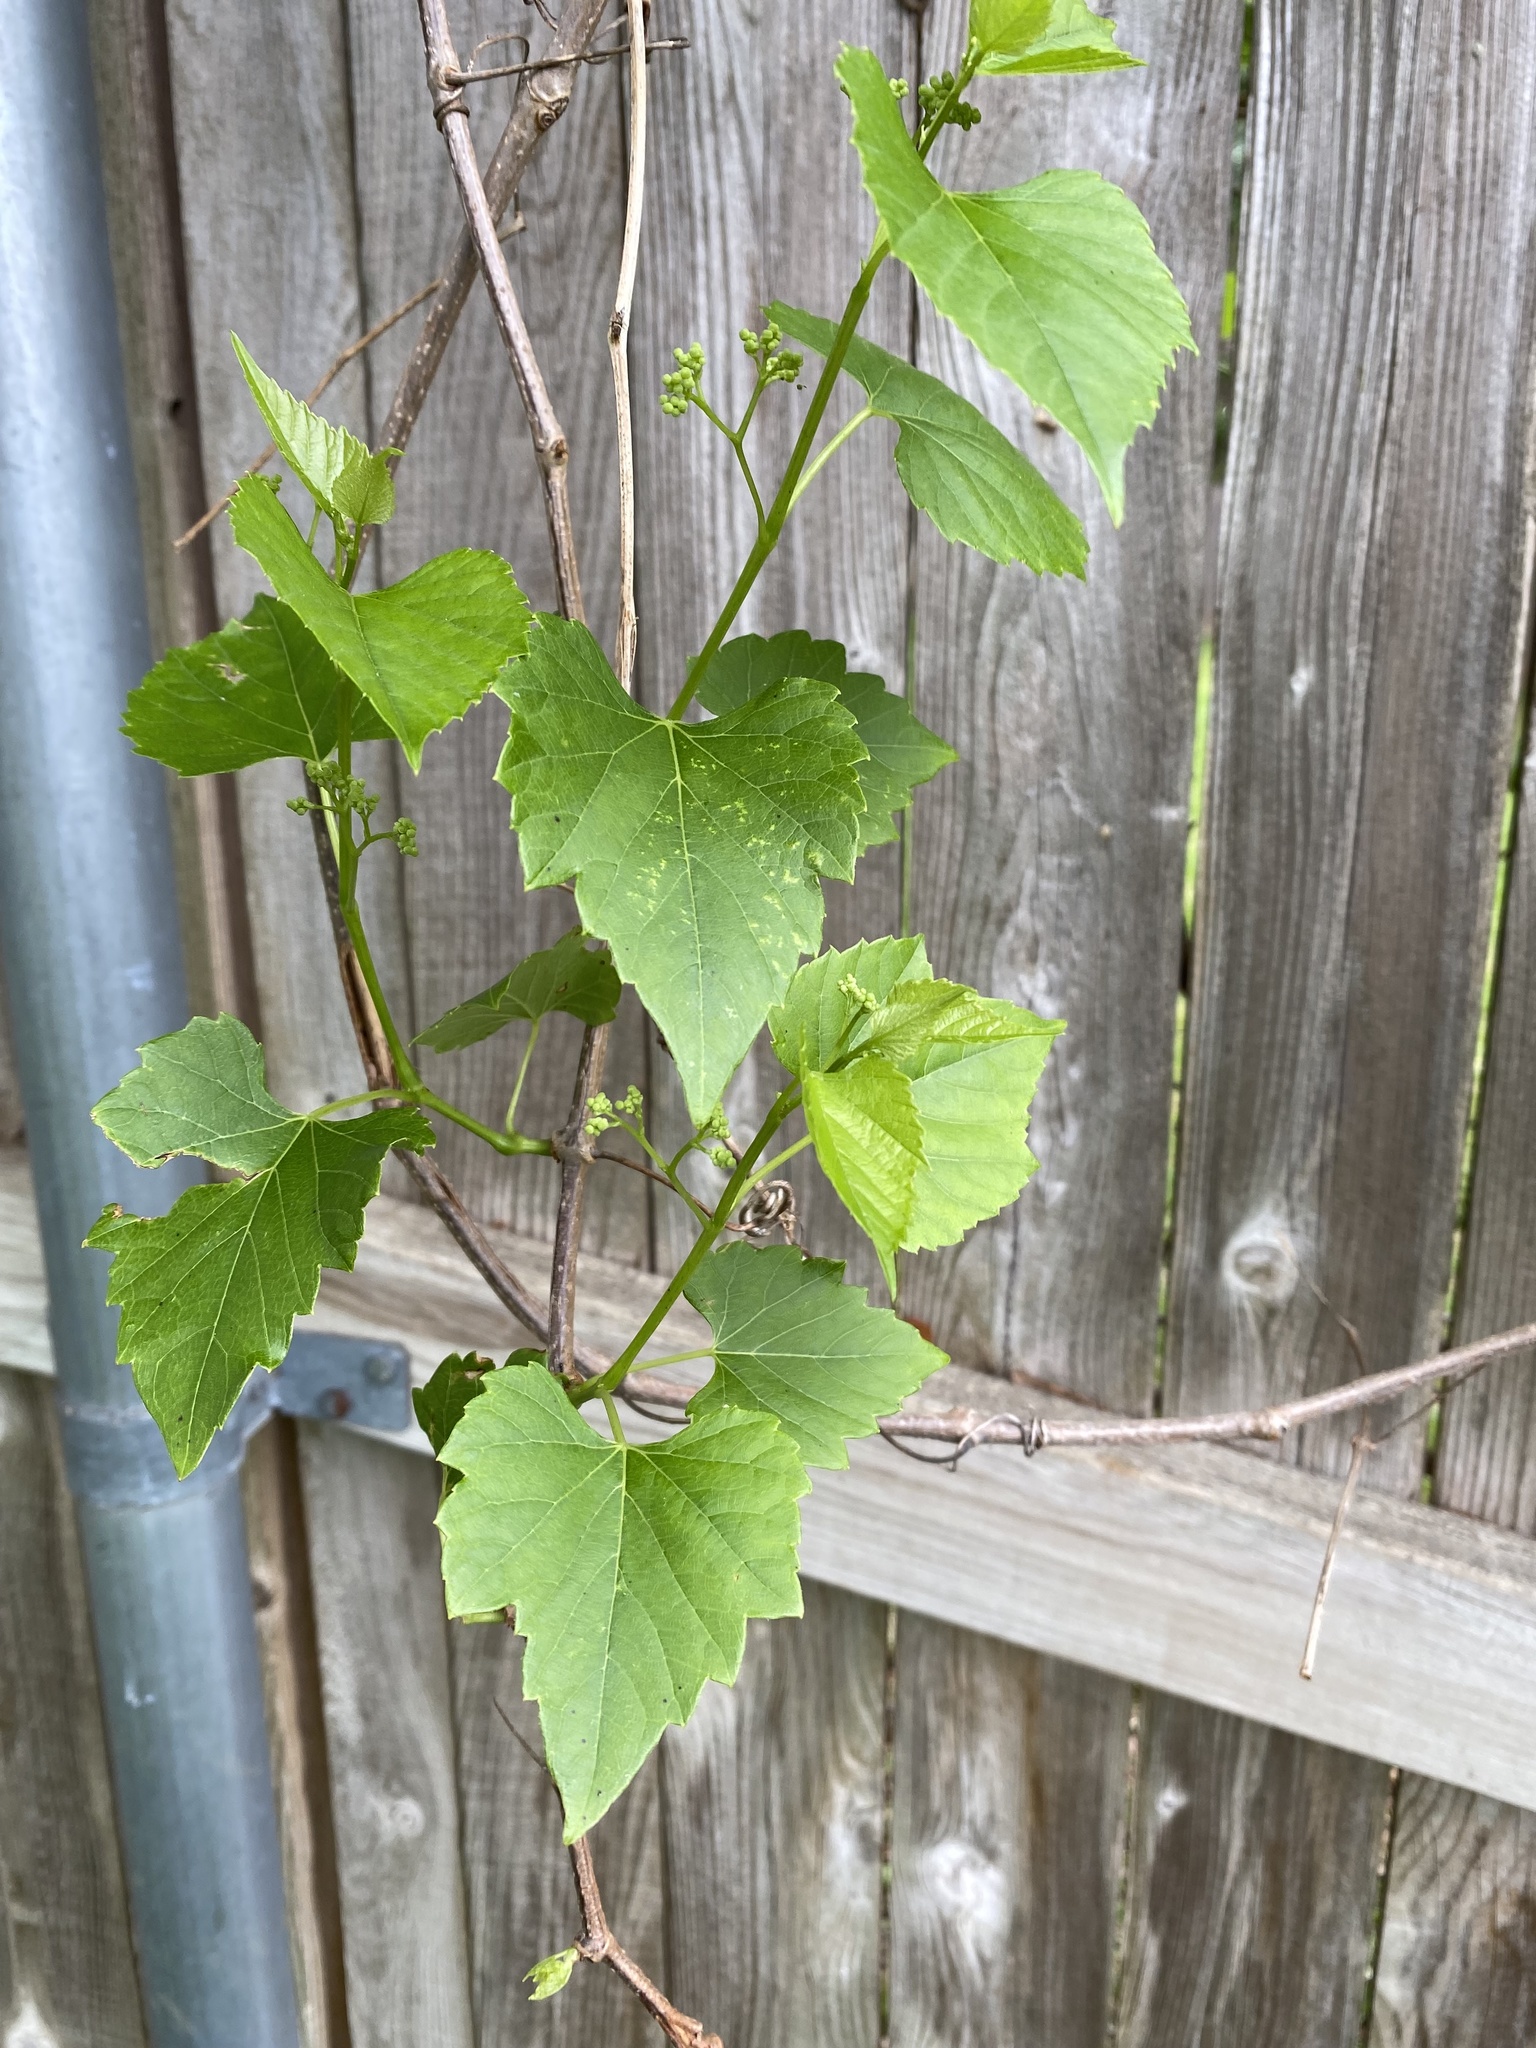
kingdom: Plantae
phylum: Tracheophyta
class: Magnoliopsida
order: Vitales
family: Vitaceae
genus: Ampelopsis
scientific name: Ampelopsis cordata
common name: Heart-leaf ampelopsis
